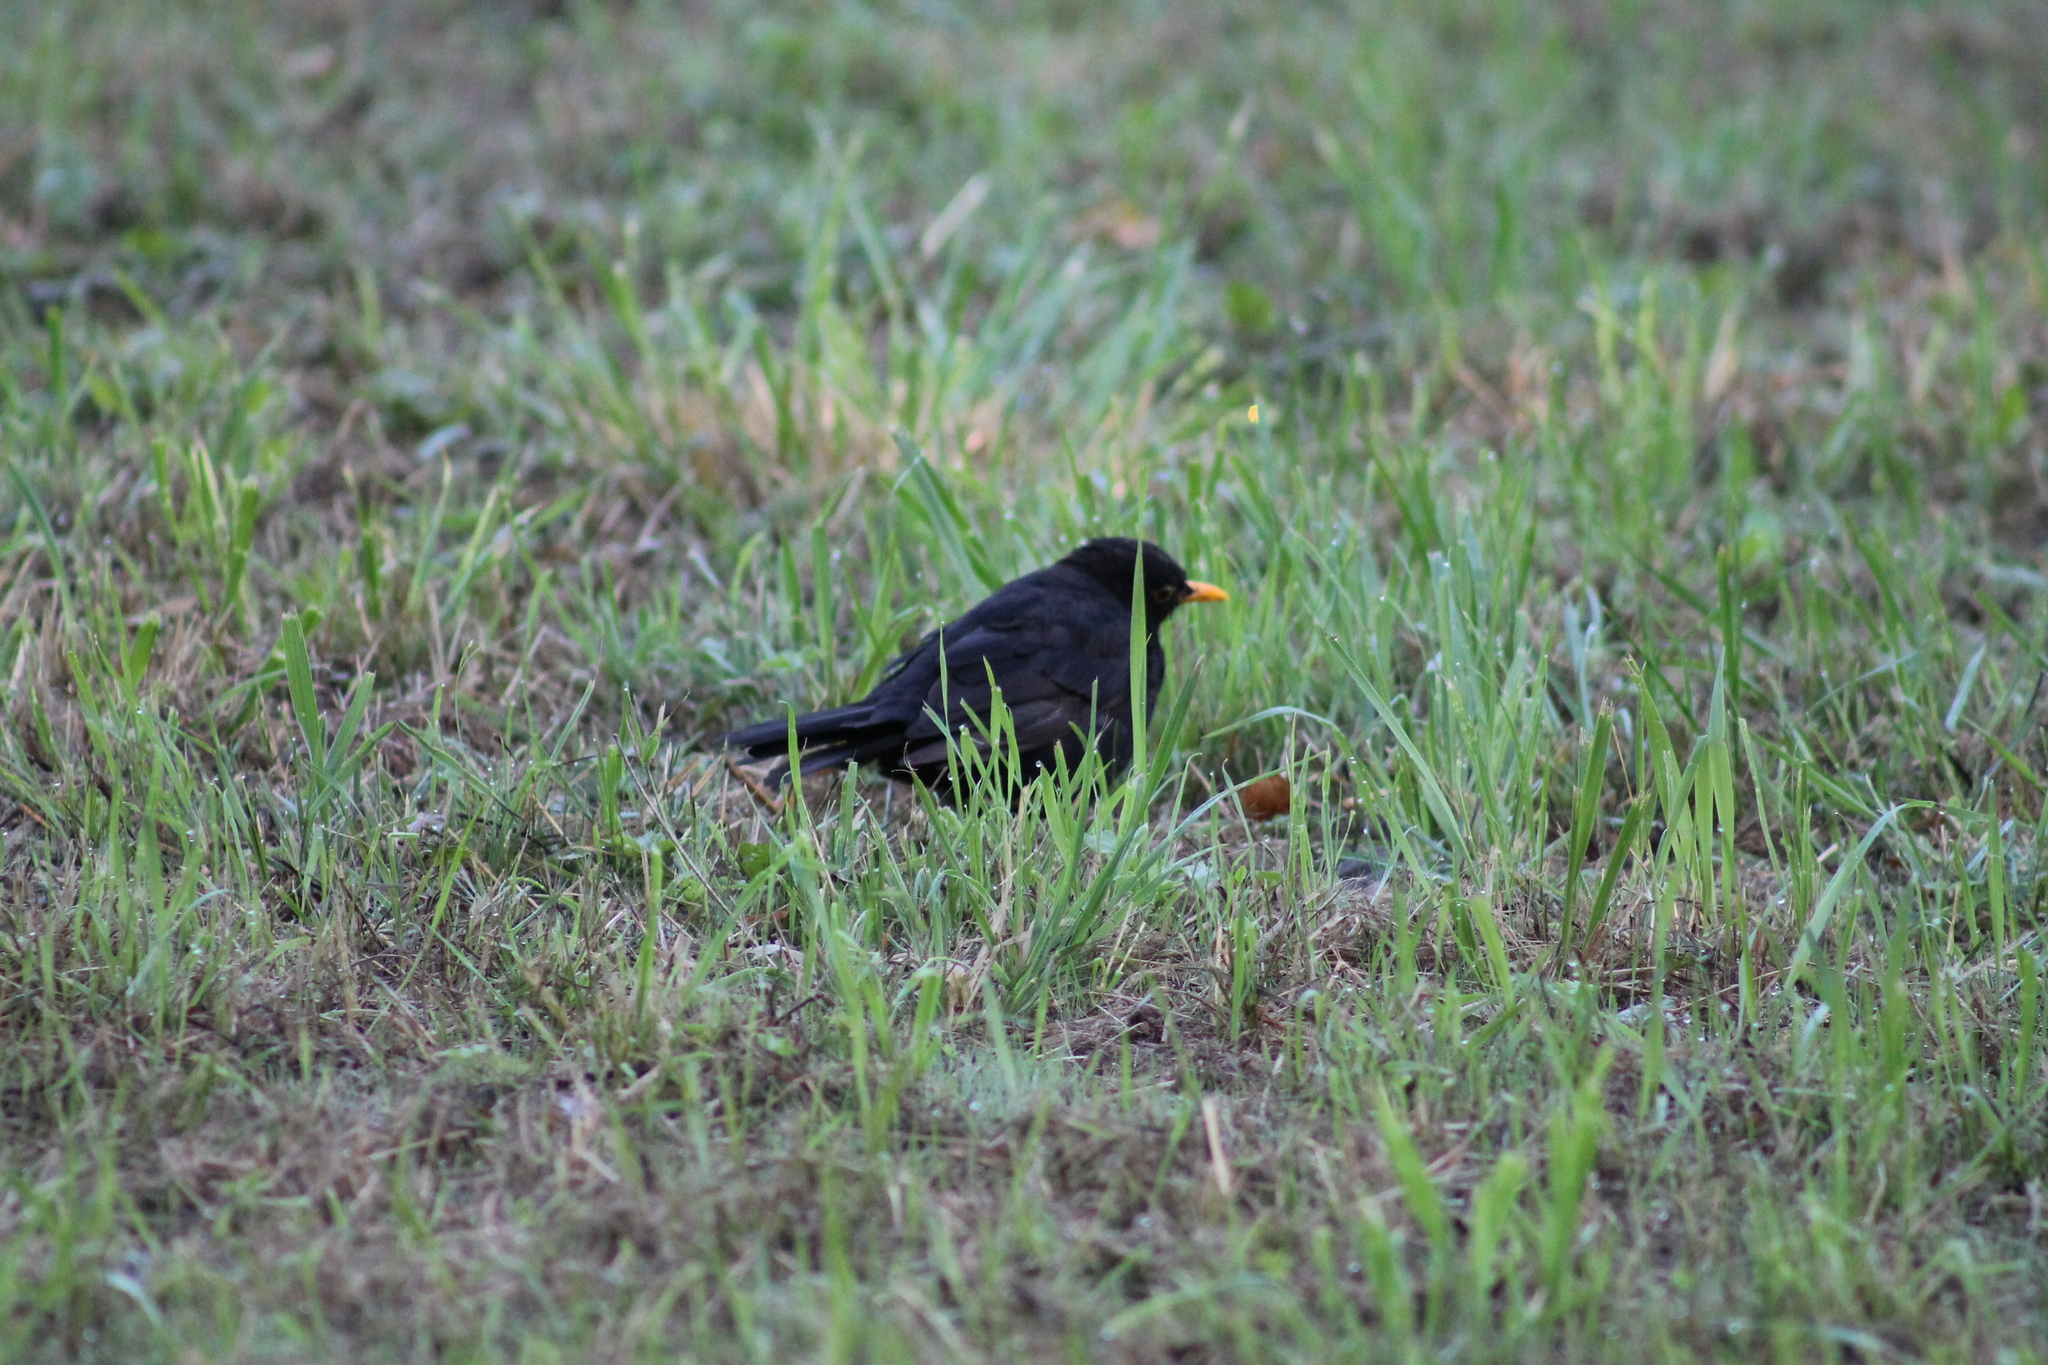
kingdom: Animalia
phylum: Chordata
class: Aves
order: Passeriformes
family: Turdidae
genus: Turdus
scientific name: Turdus merula
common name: Common blackbird
